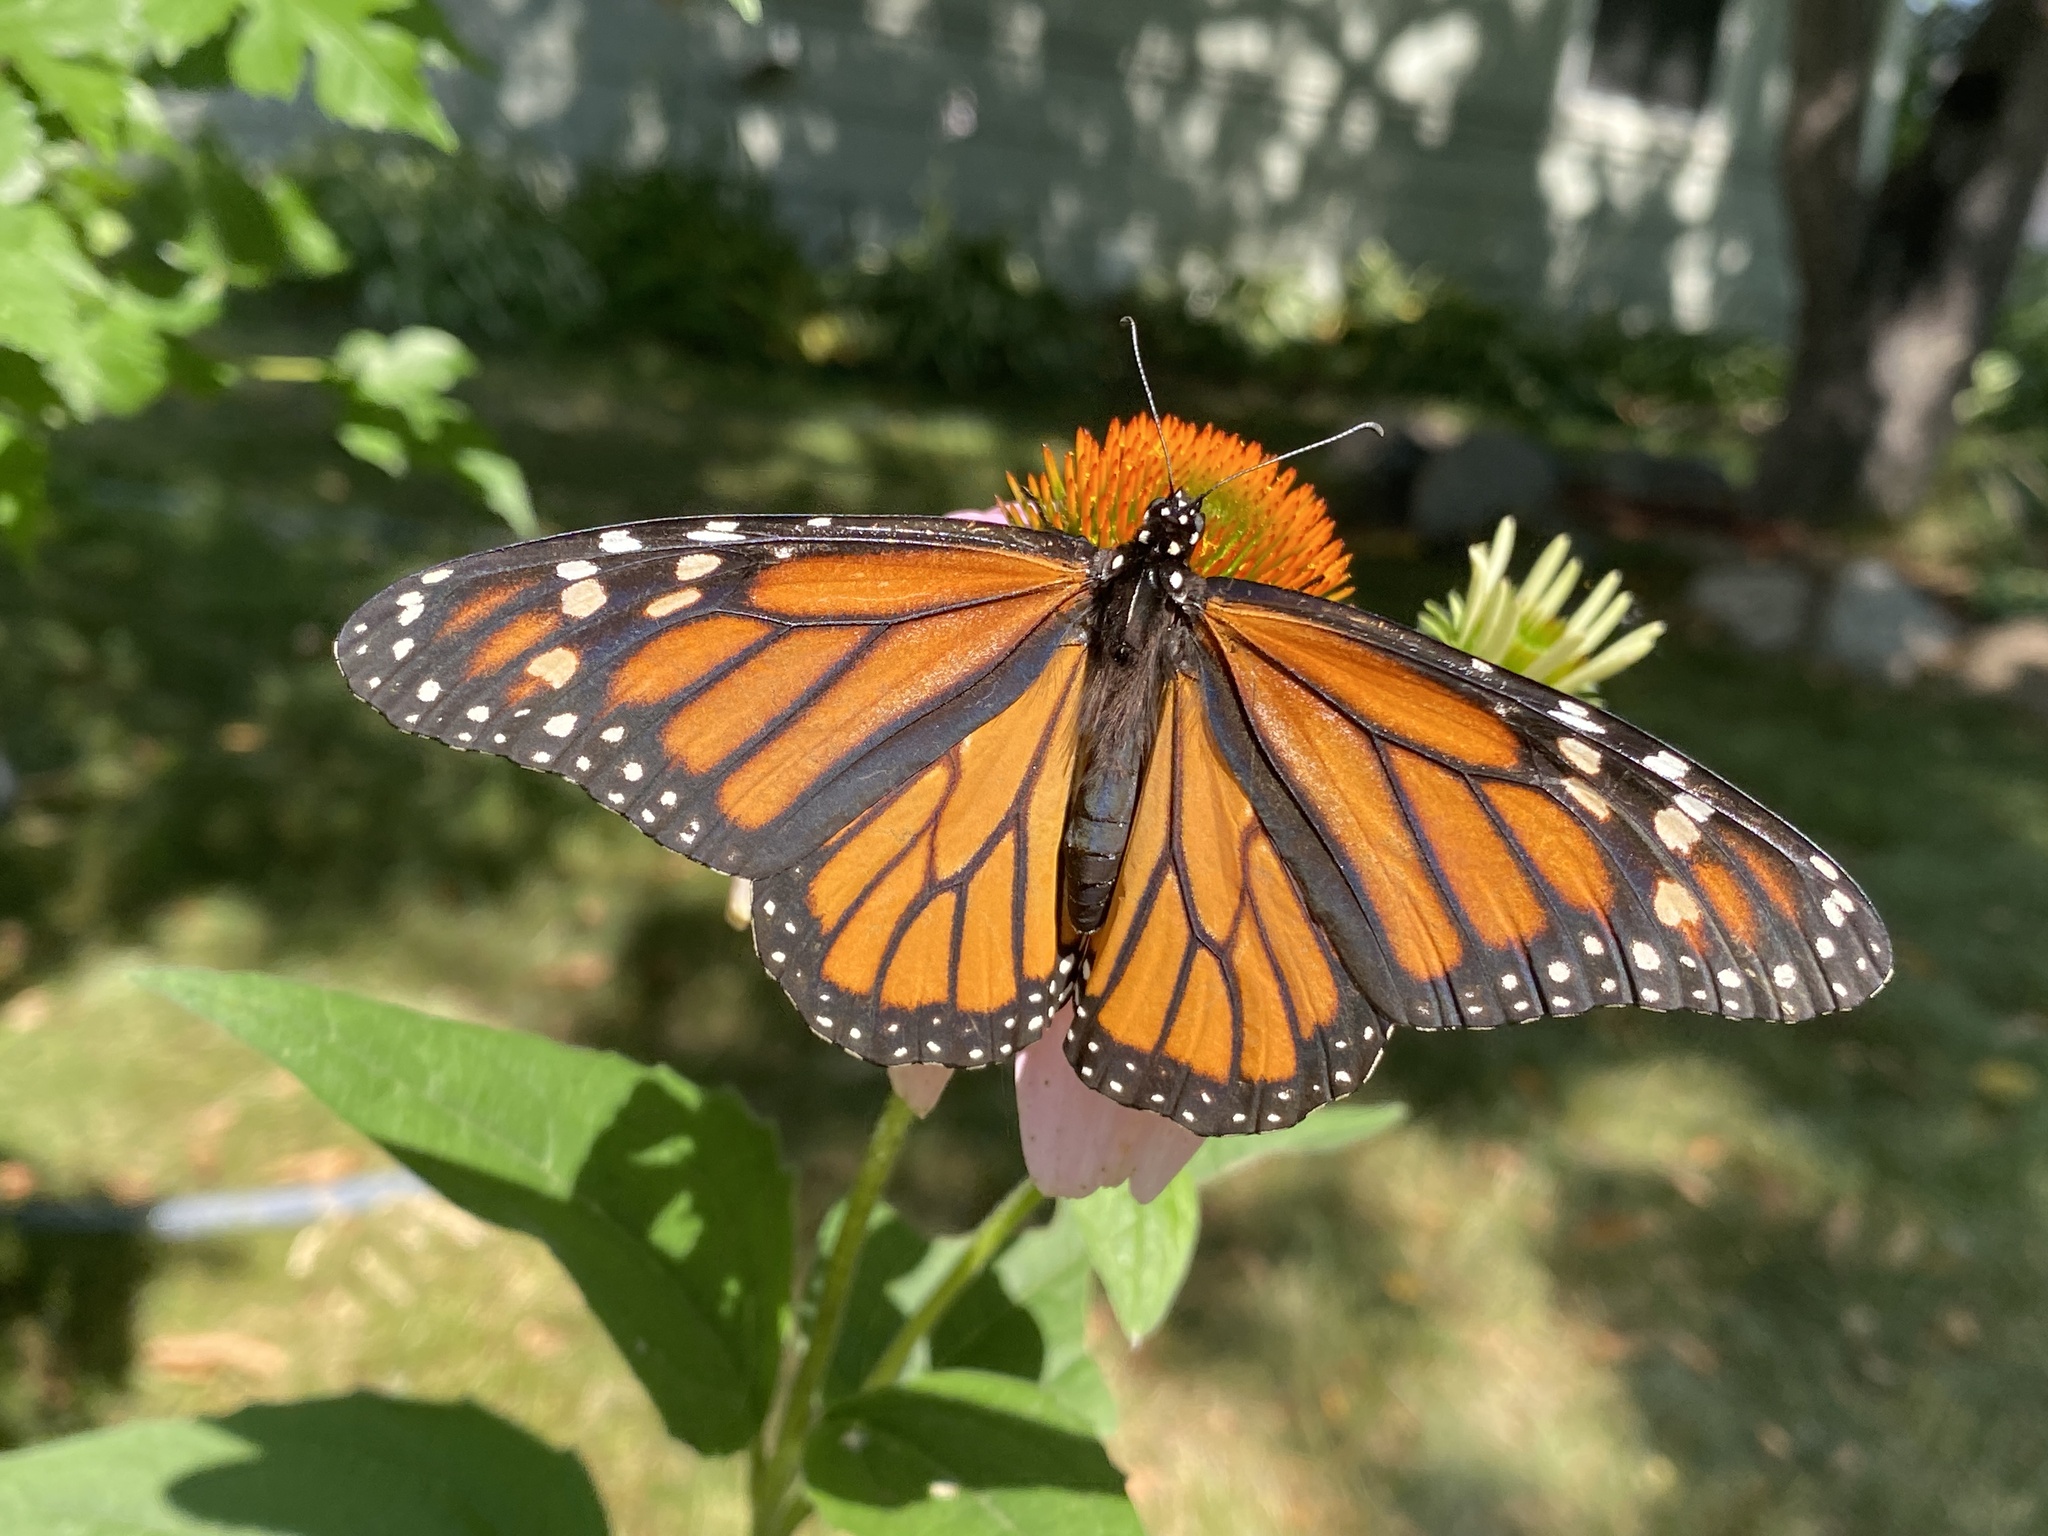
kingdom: Animalia
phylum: Arthropoda
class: Insecta
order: Lepidoptera
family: Nymphalidae
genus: Danaus
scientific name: Danaus plexippus
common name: Monarch
